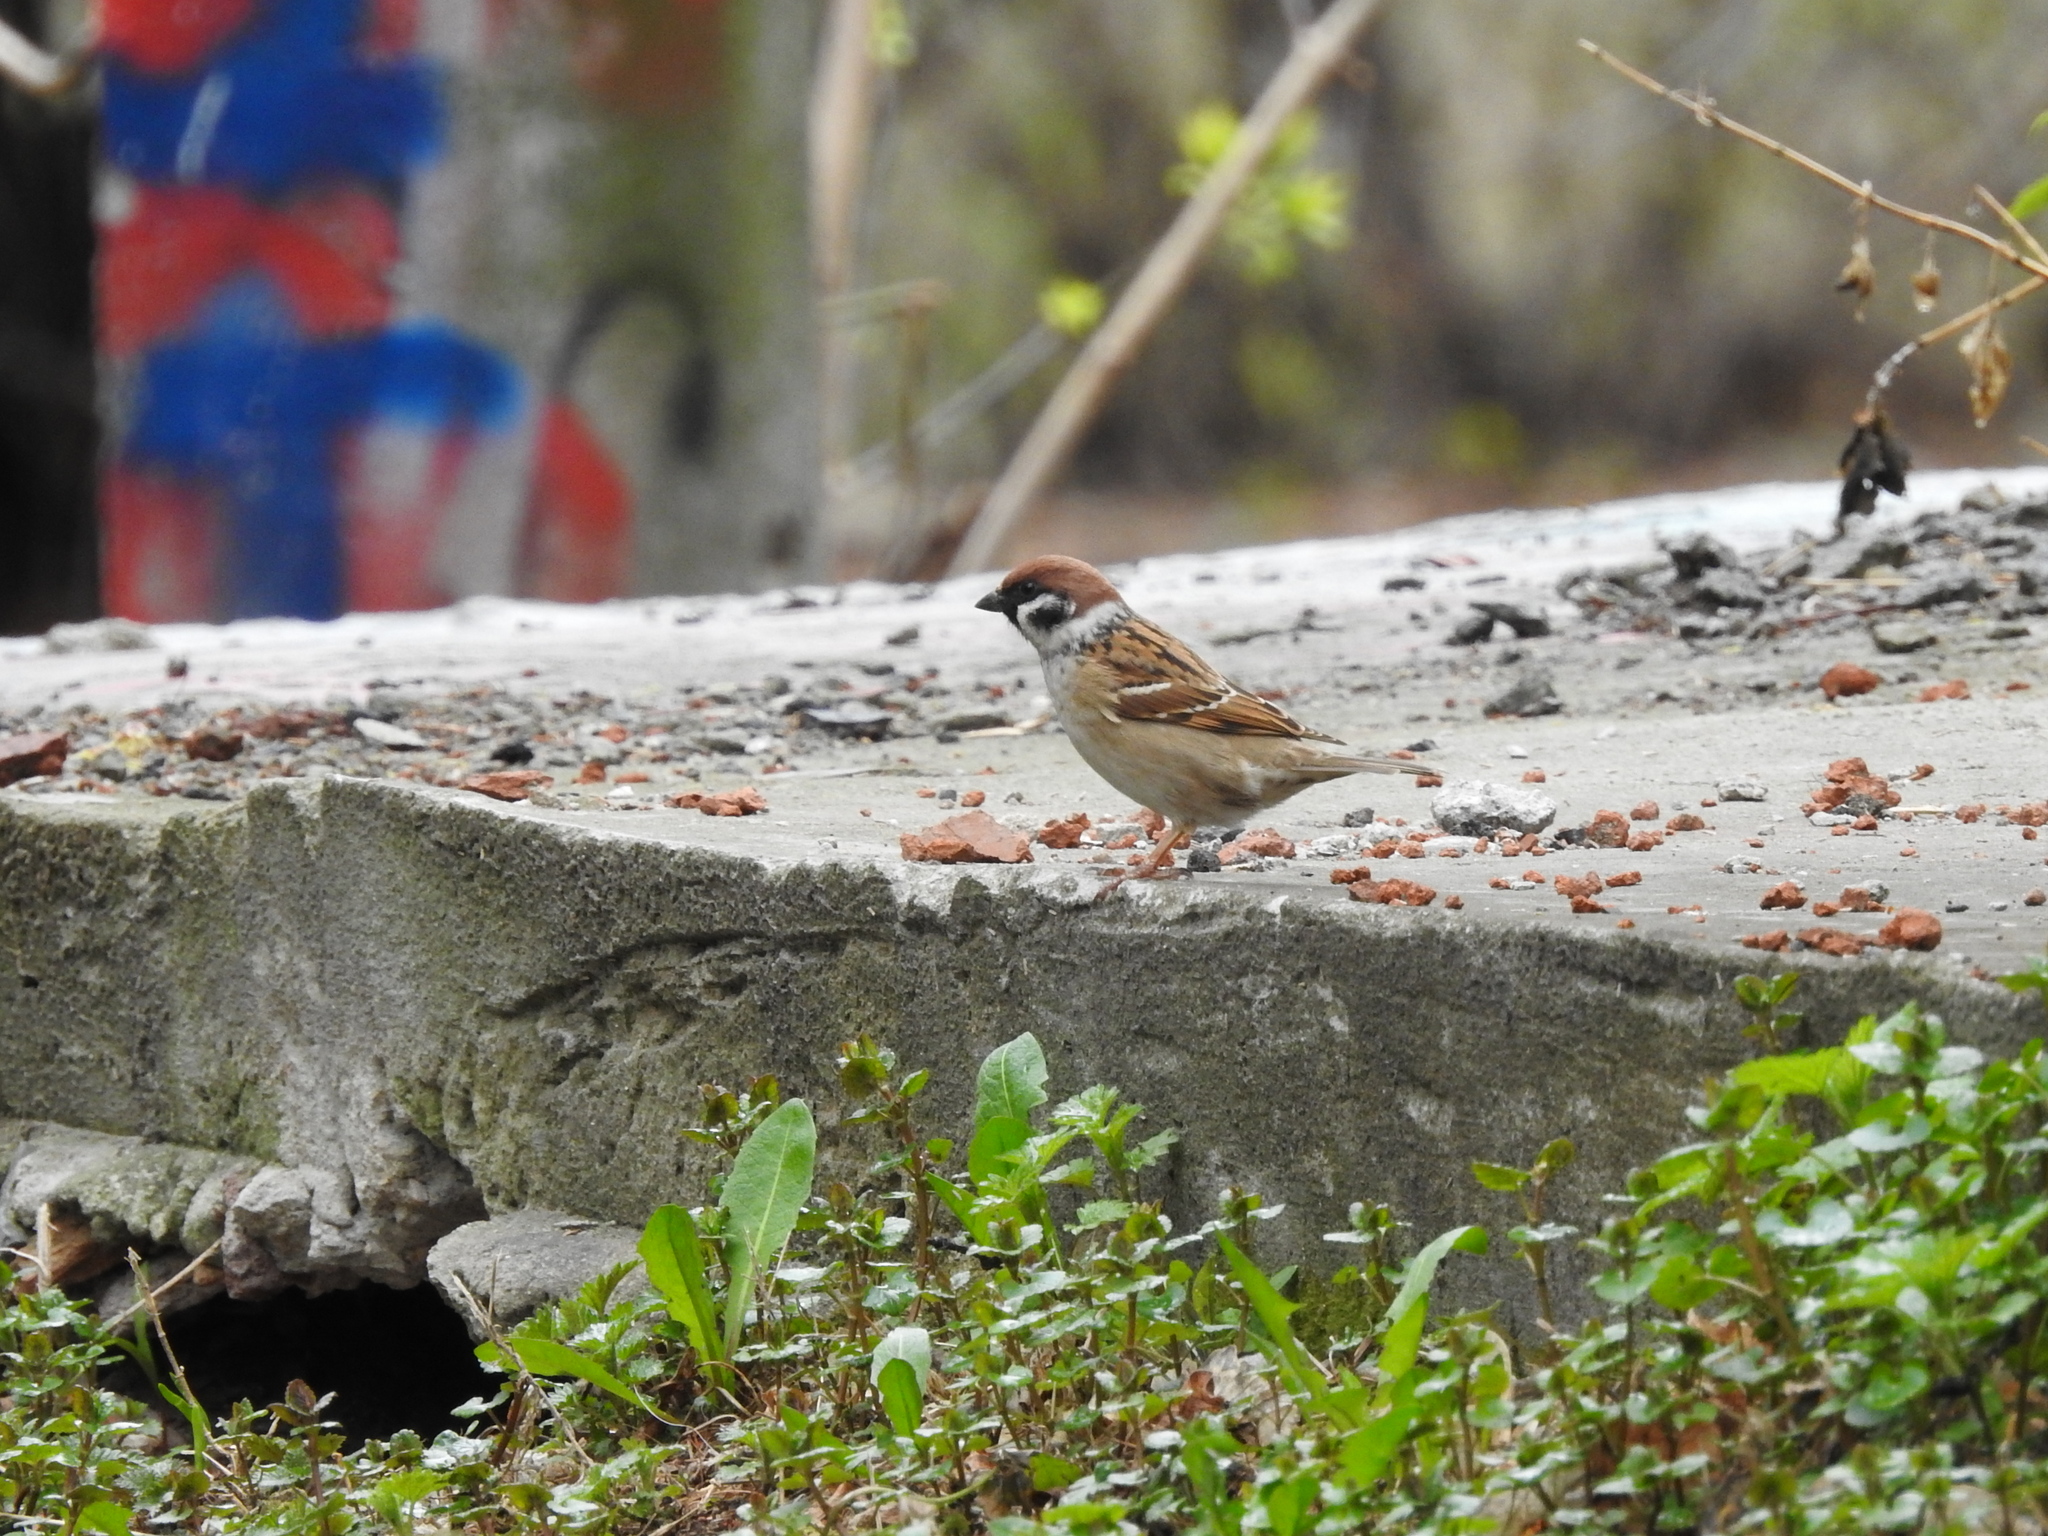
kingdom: Animalia
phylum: Chordata
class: Aves
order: Passeriformes
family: Passeridae
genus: Passer
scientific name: Passer montanus
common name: Eurasian tree sparrow
